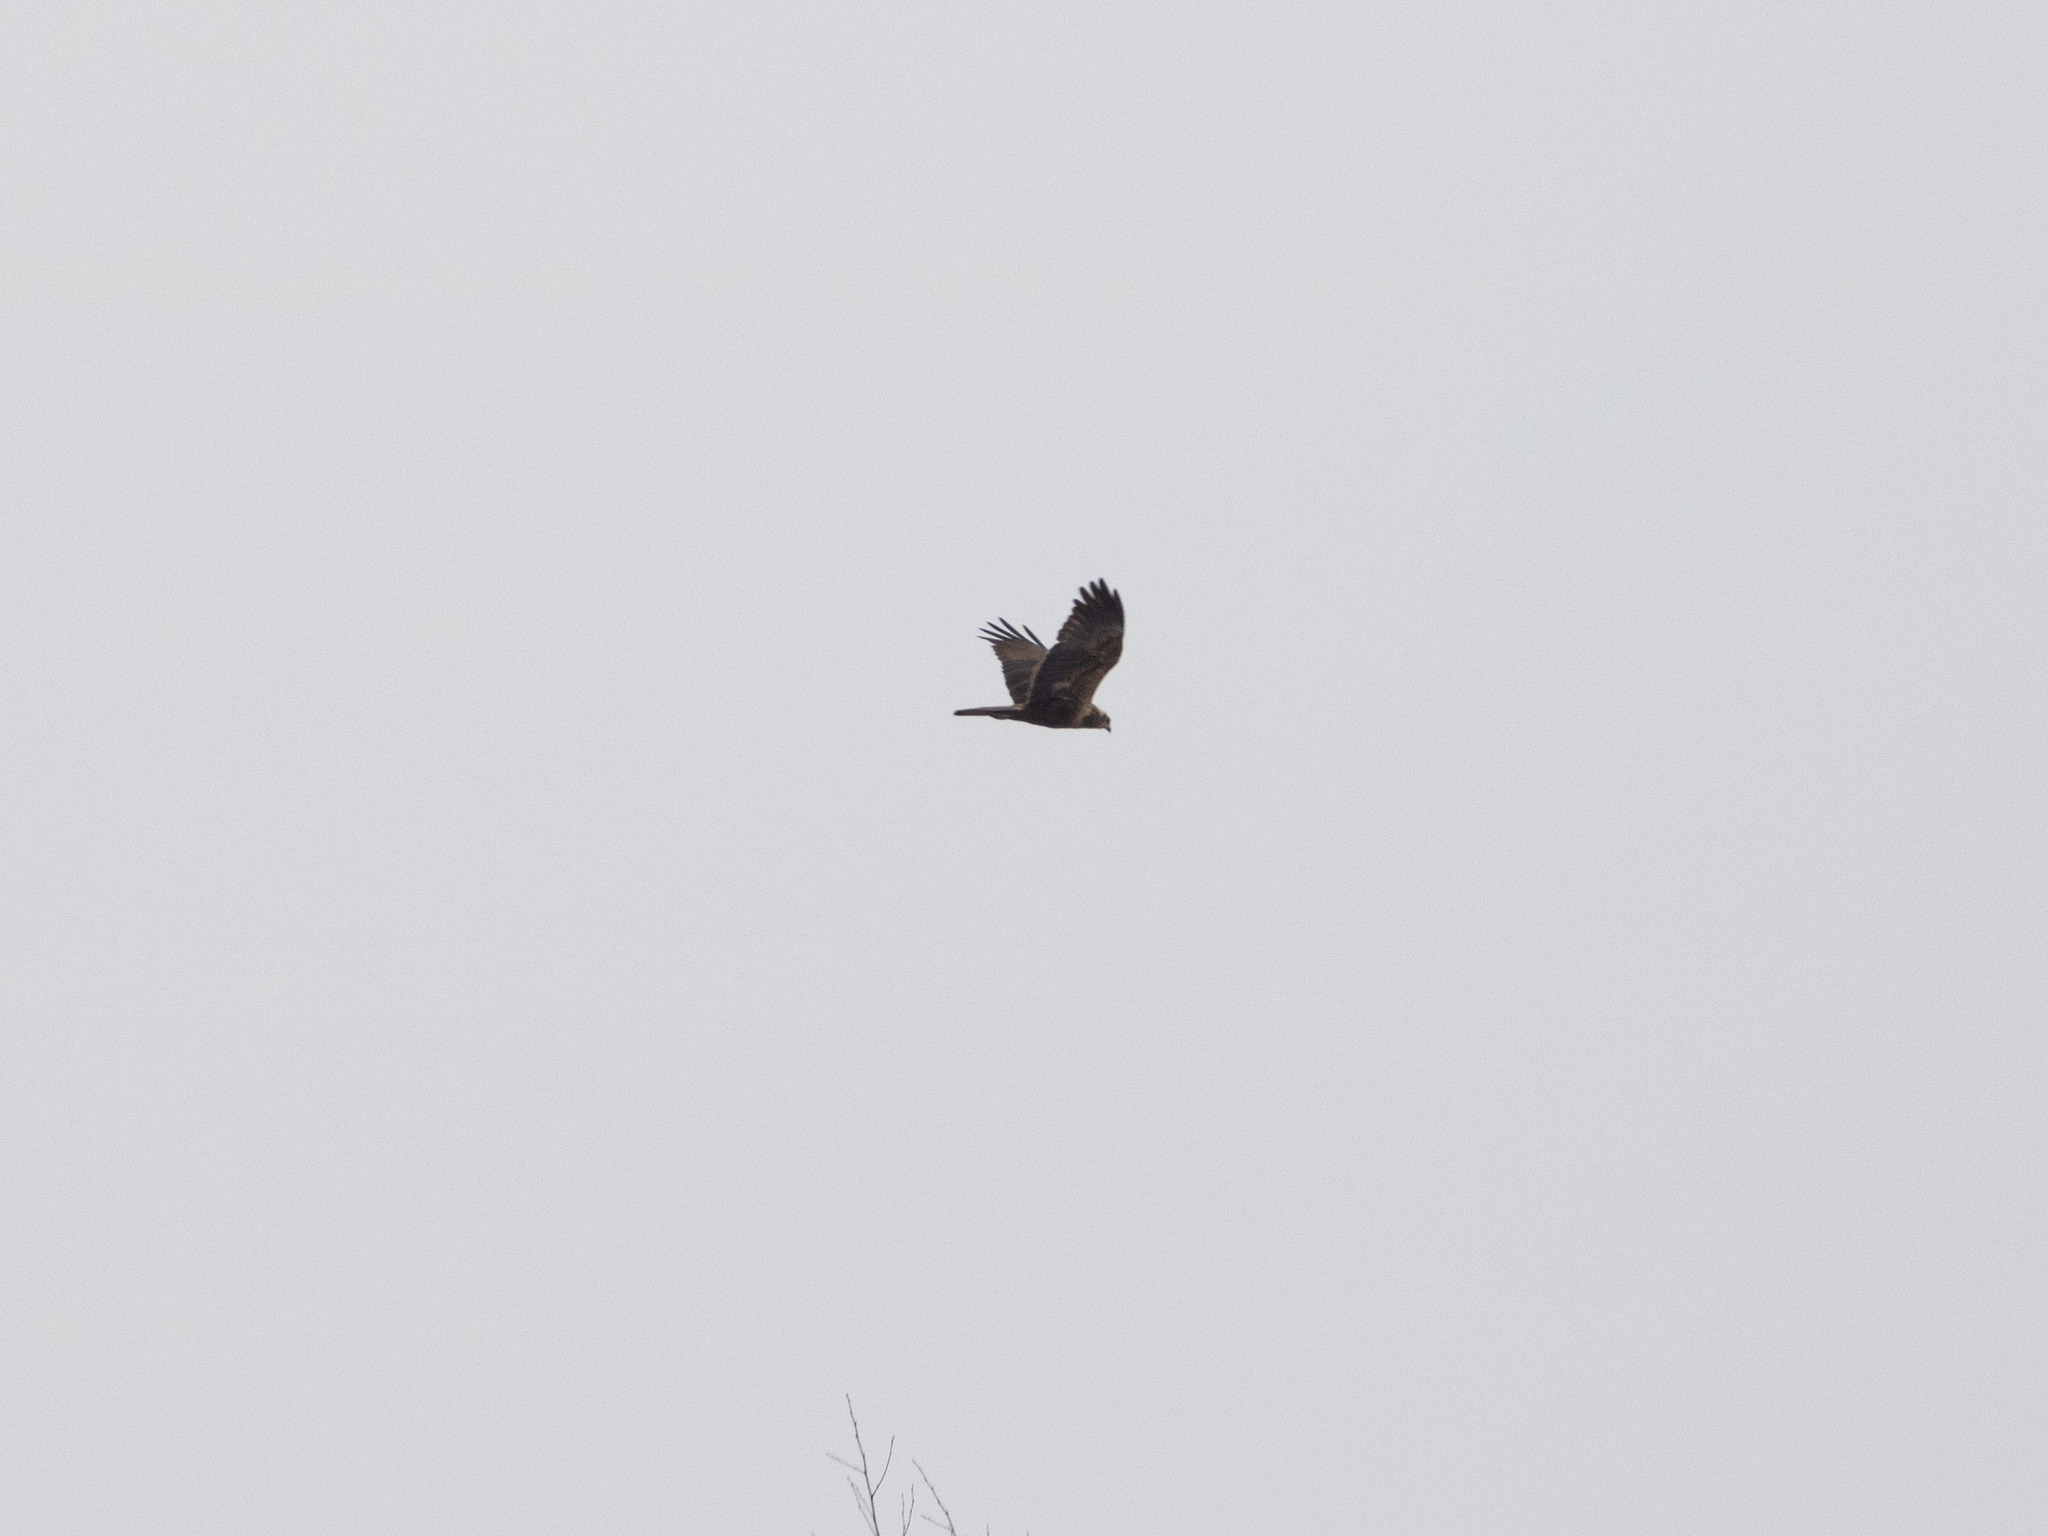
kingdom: Animalia
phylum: Chordata
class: Aves
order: Accipitriformes
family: Accipitridae
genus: Circus
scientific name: Circus aeruginosus
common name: Western marsh harrier
